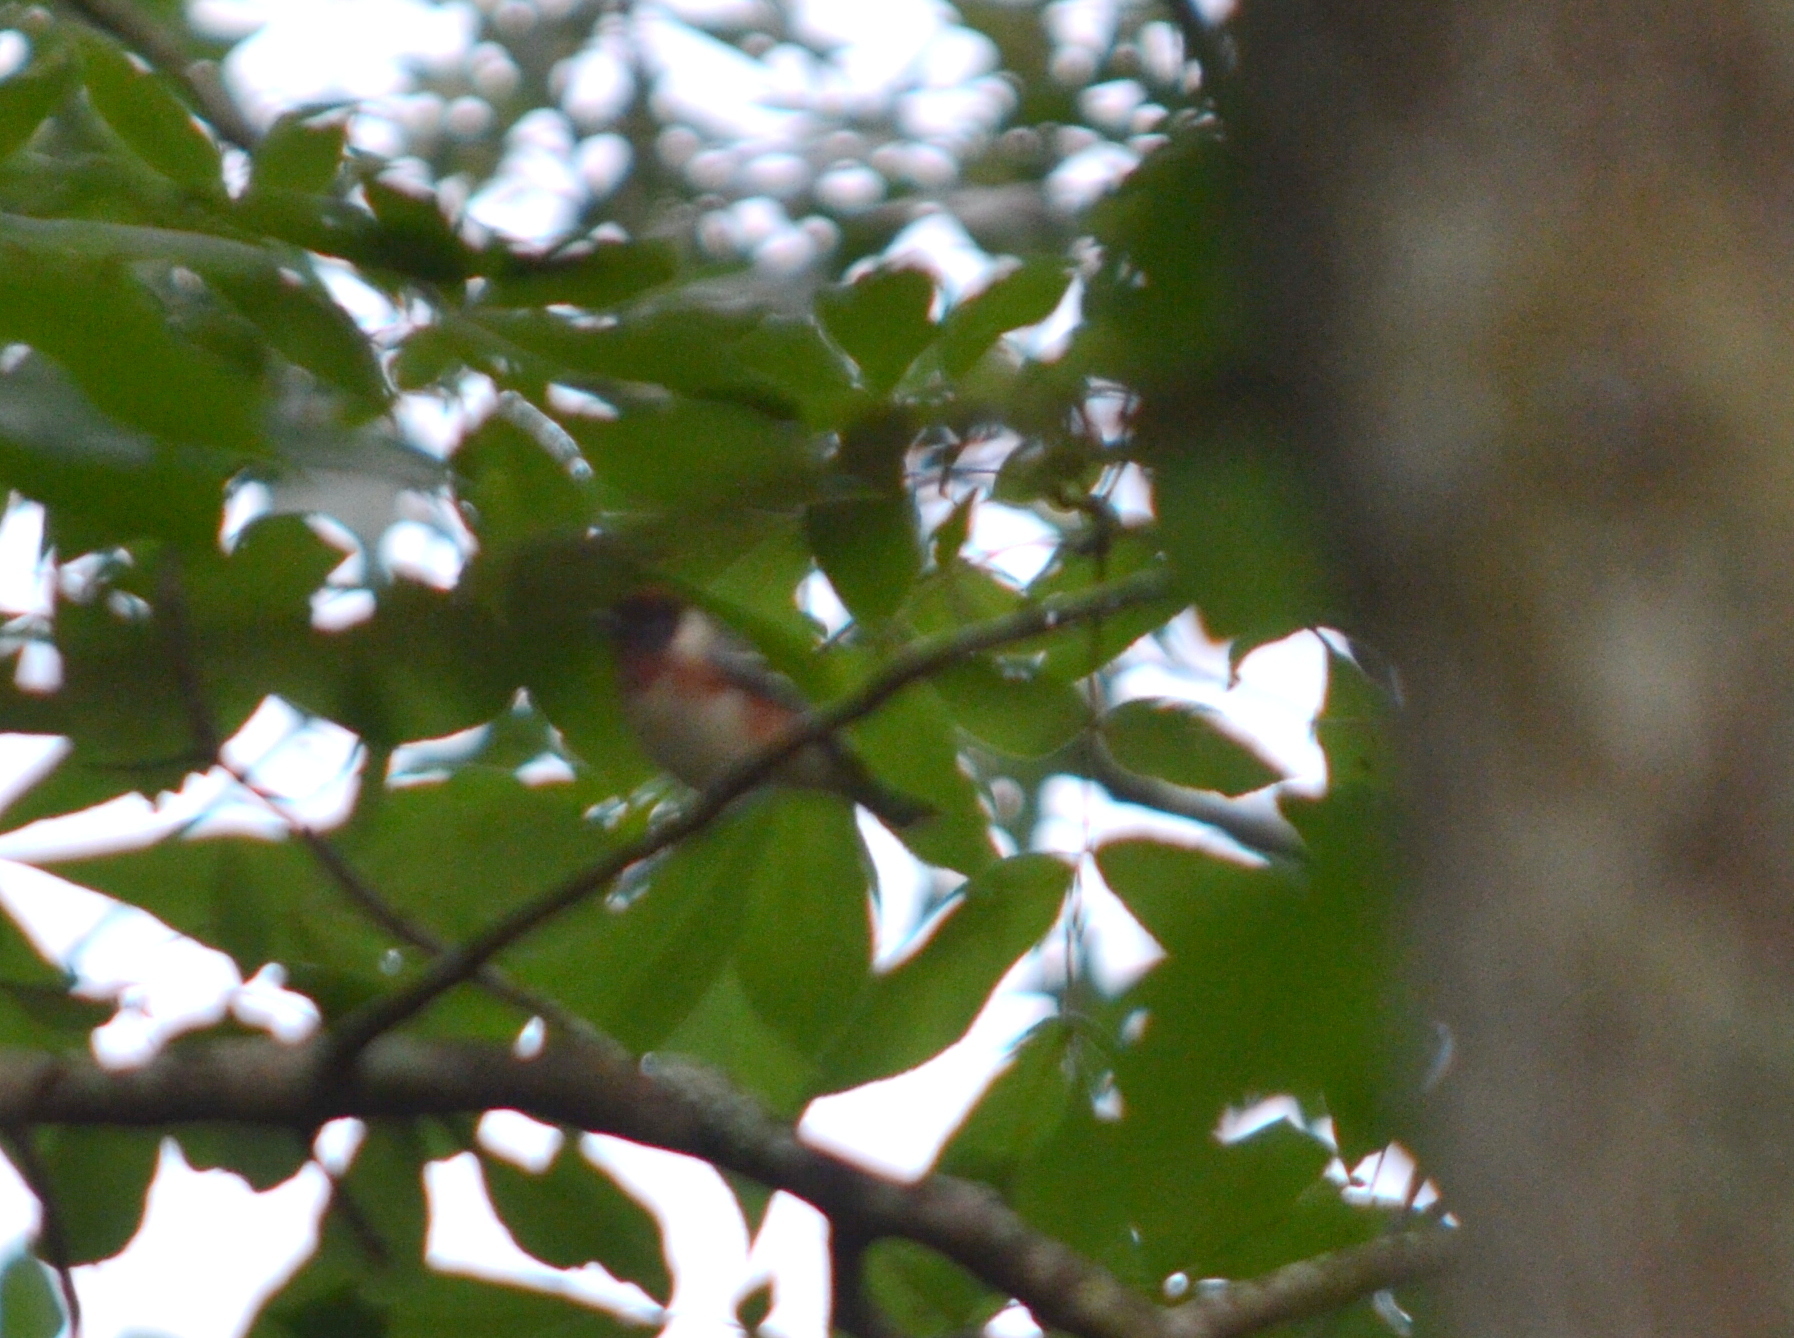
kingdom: Animalia
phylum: Chordata
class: Aves
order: Passeriformes
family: Parulidae
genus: Setophaga
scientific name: Setophaga castanea
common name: Bay-breasted warbler
